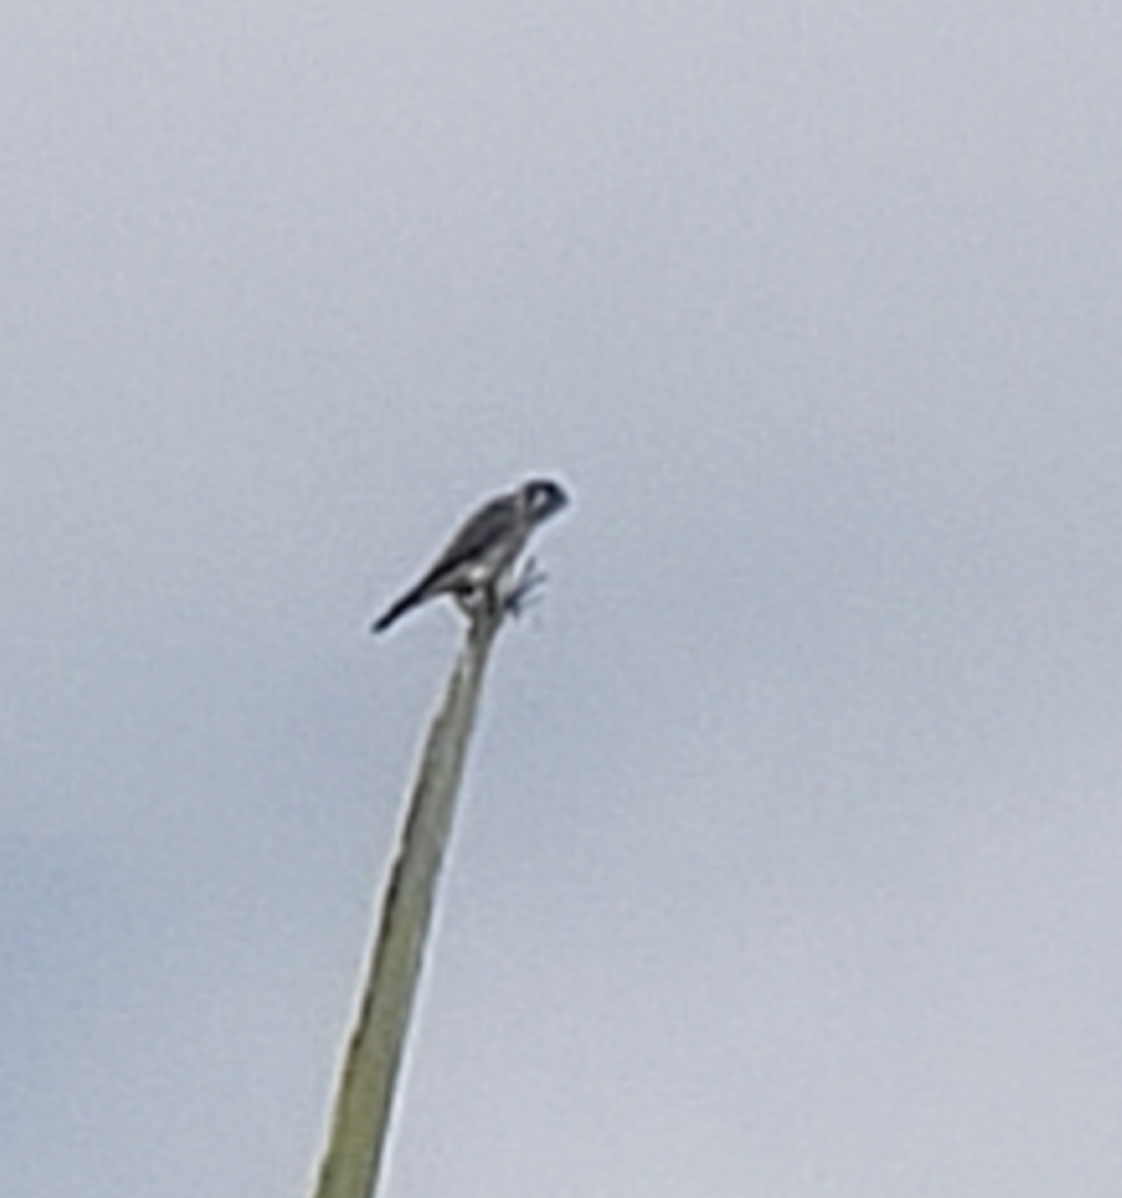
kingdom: Animalia
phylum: Chordata
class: Aves
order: Falconiformes
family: Falconidae
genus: Falco
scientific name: Falco sparverius
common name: American kestrel
